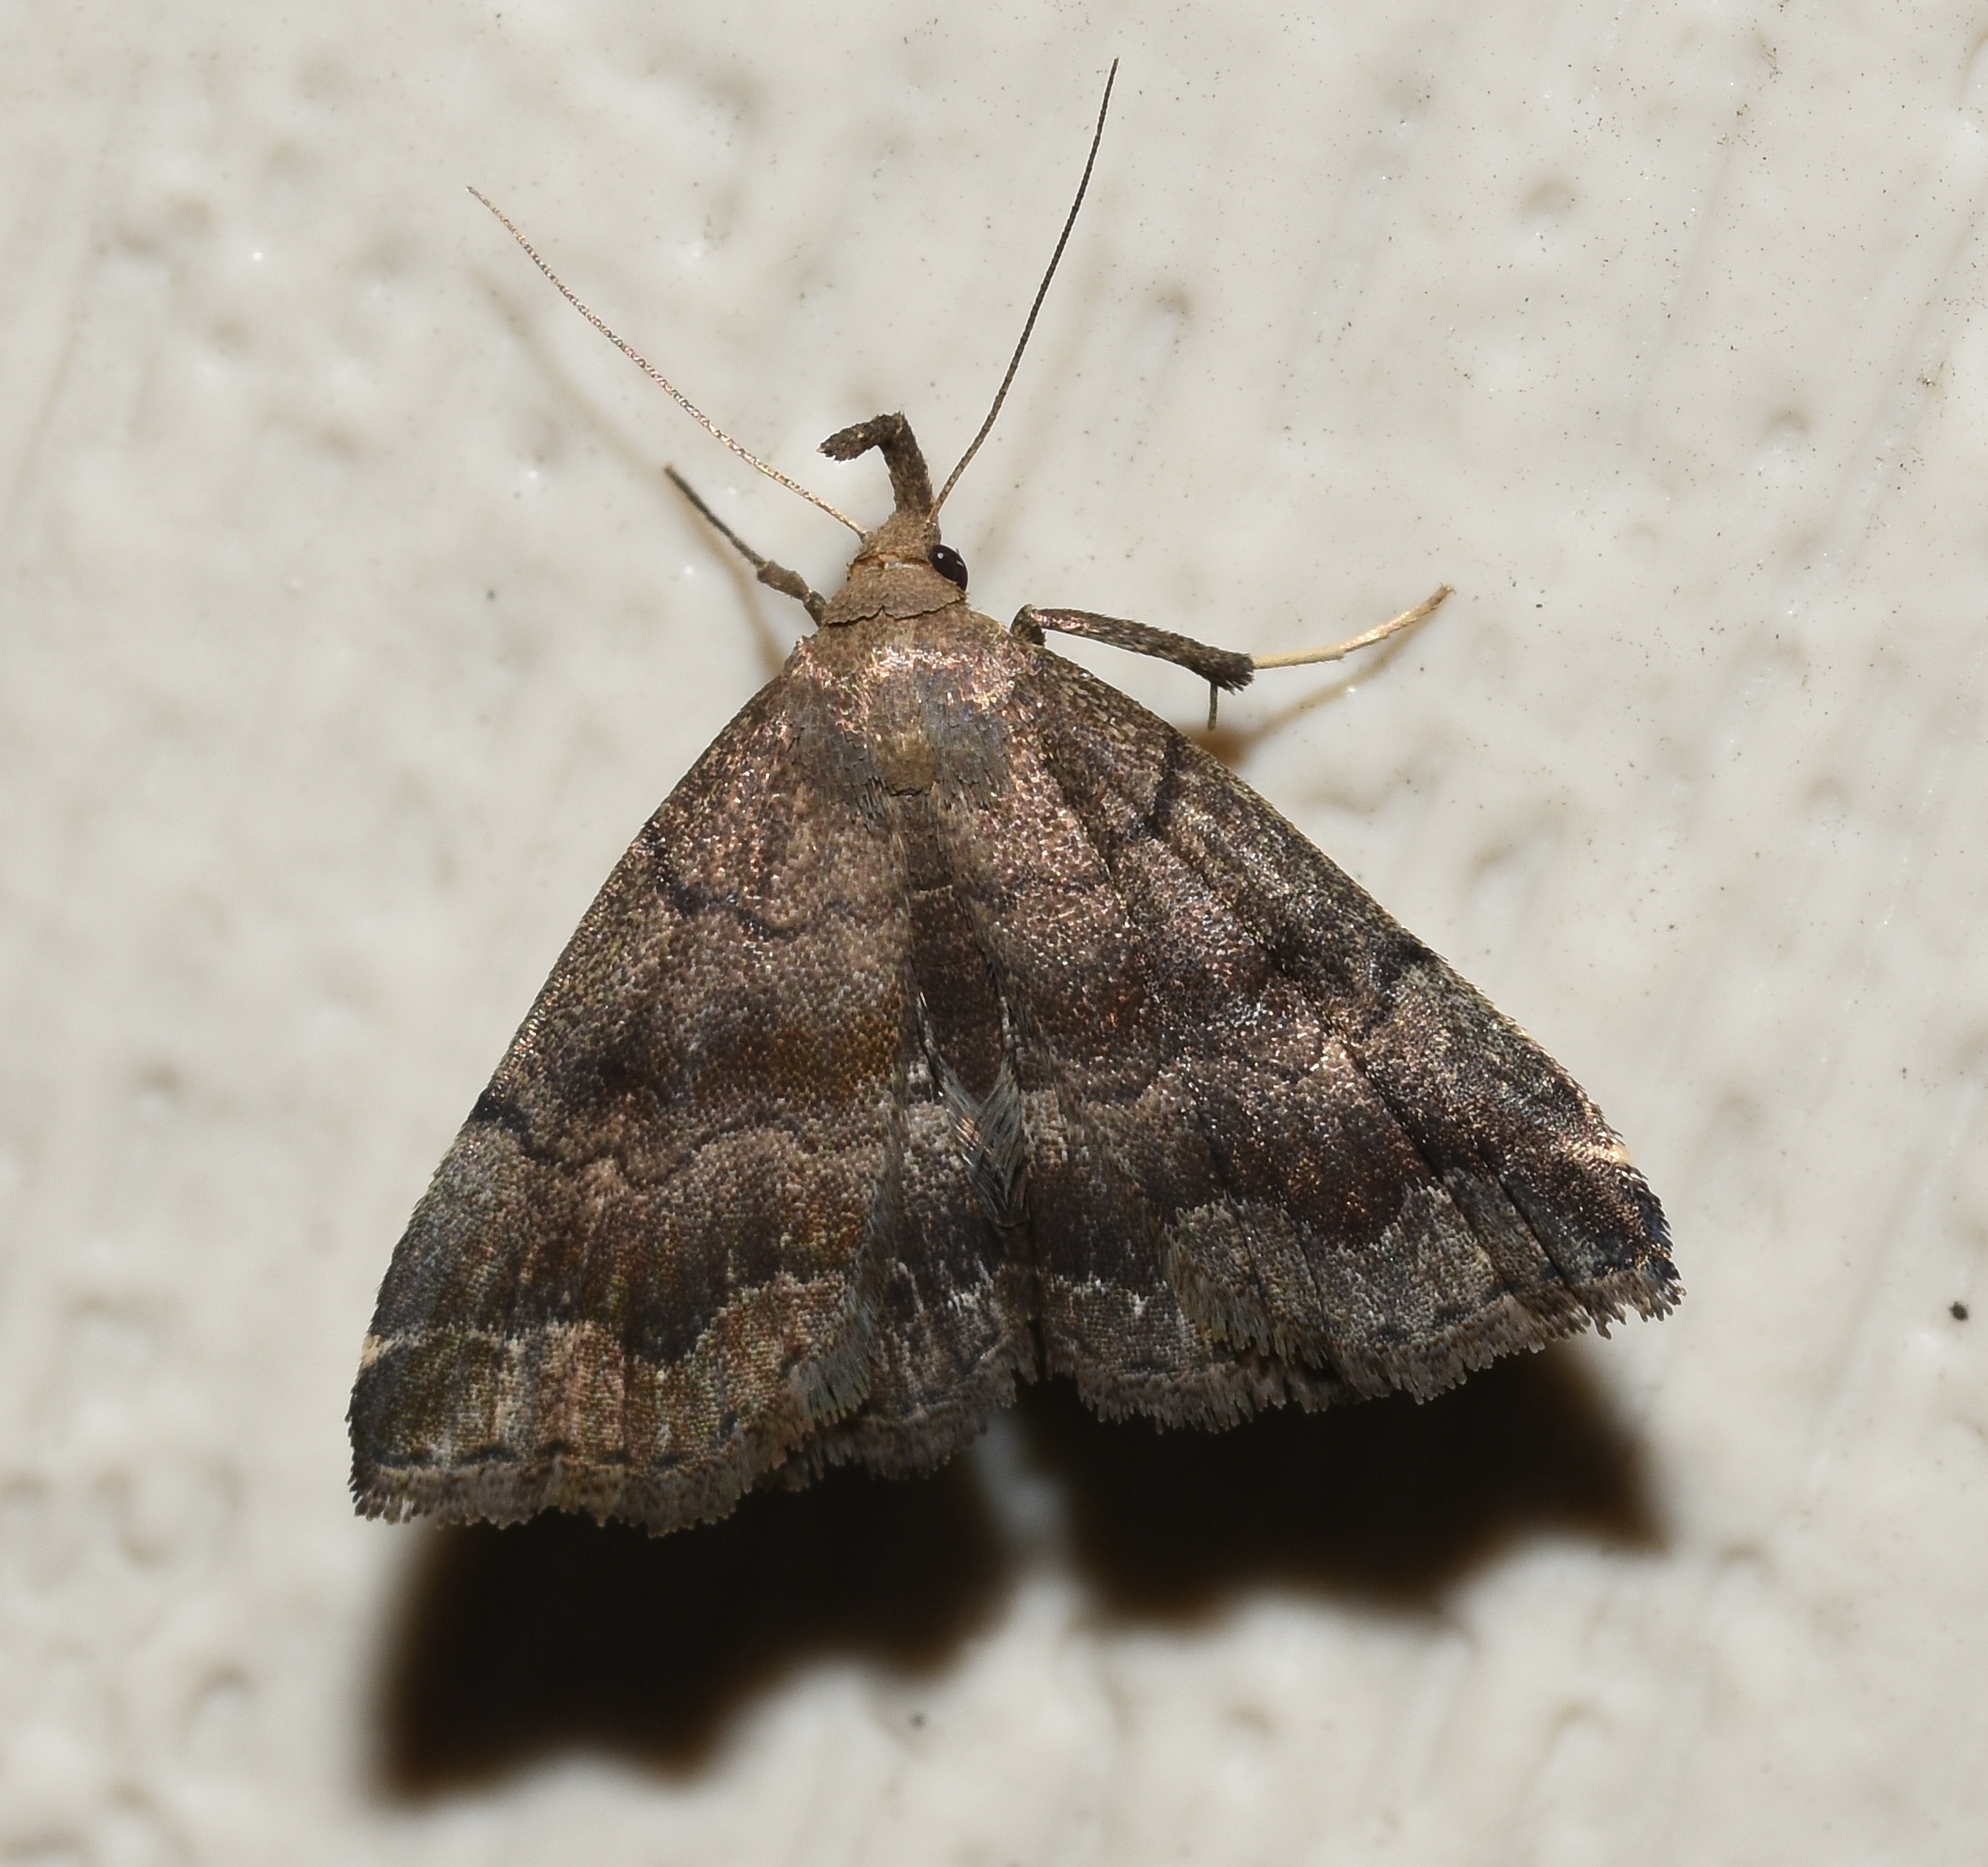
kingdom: Animalia
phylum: Arthropoda
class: Insecta
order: Lepidoptera
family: Erebidae
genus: Phalaenostola
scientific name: Phalaenostola larentioides
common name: Black-banded owlet
